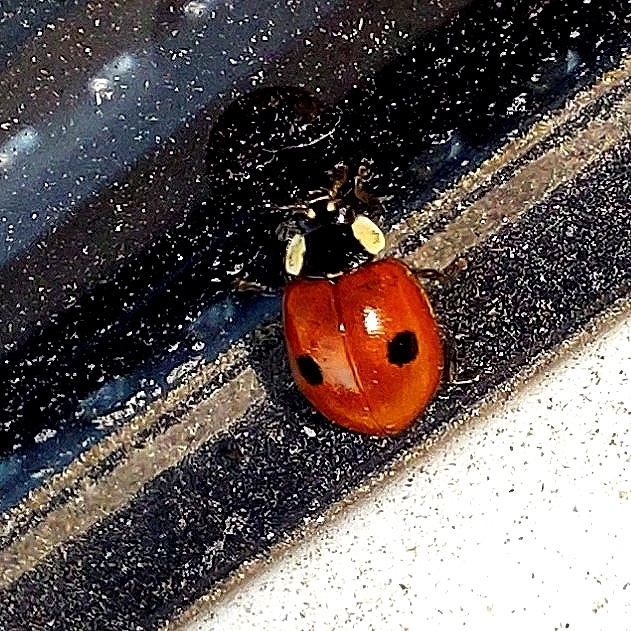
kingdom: Animalia
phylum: Arthropoda
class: Insecta
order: Coleoptera
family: Coccinellidae
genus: Adalia
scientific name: Adalia bipunctata
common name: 2-spot ladybird
